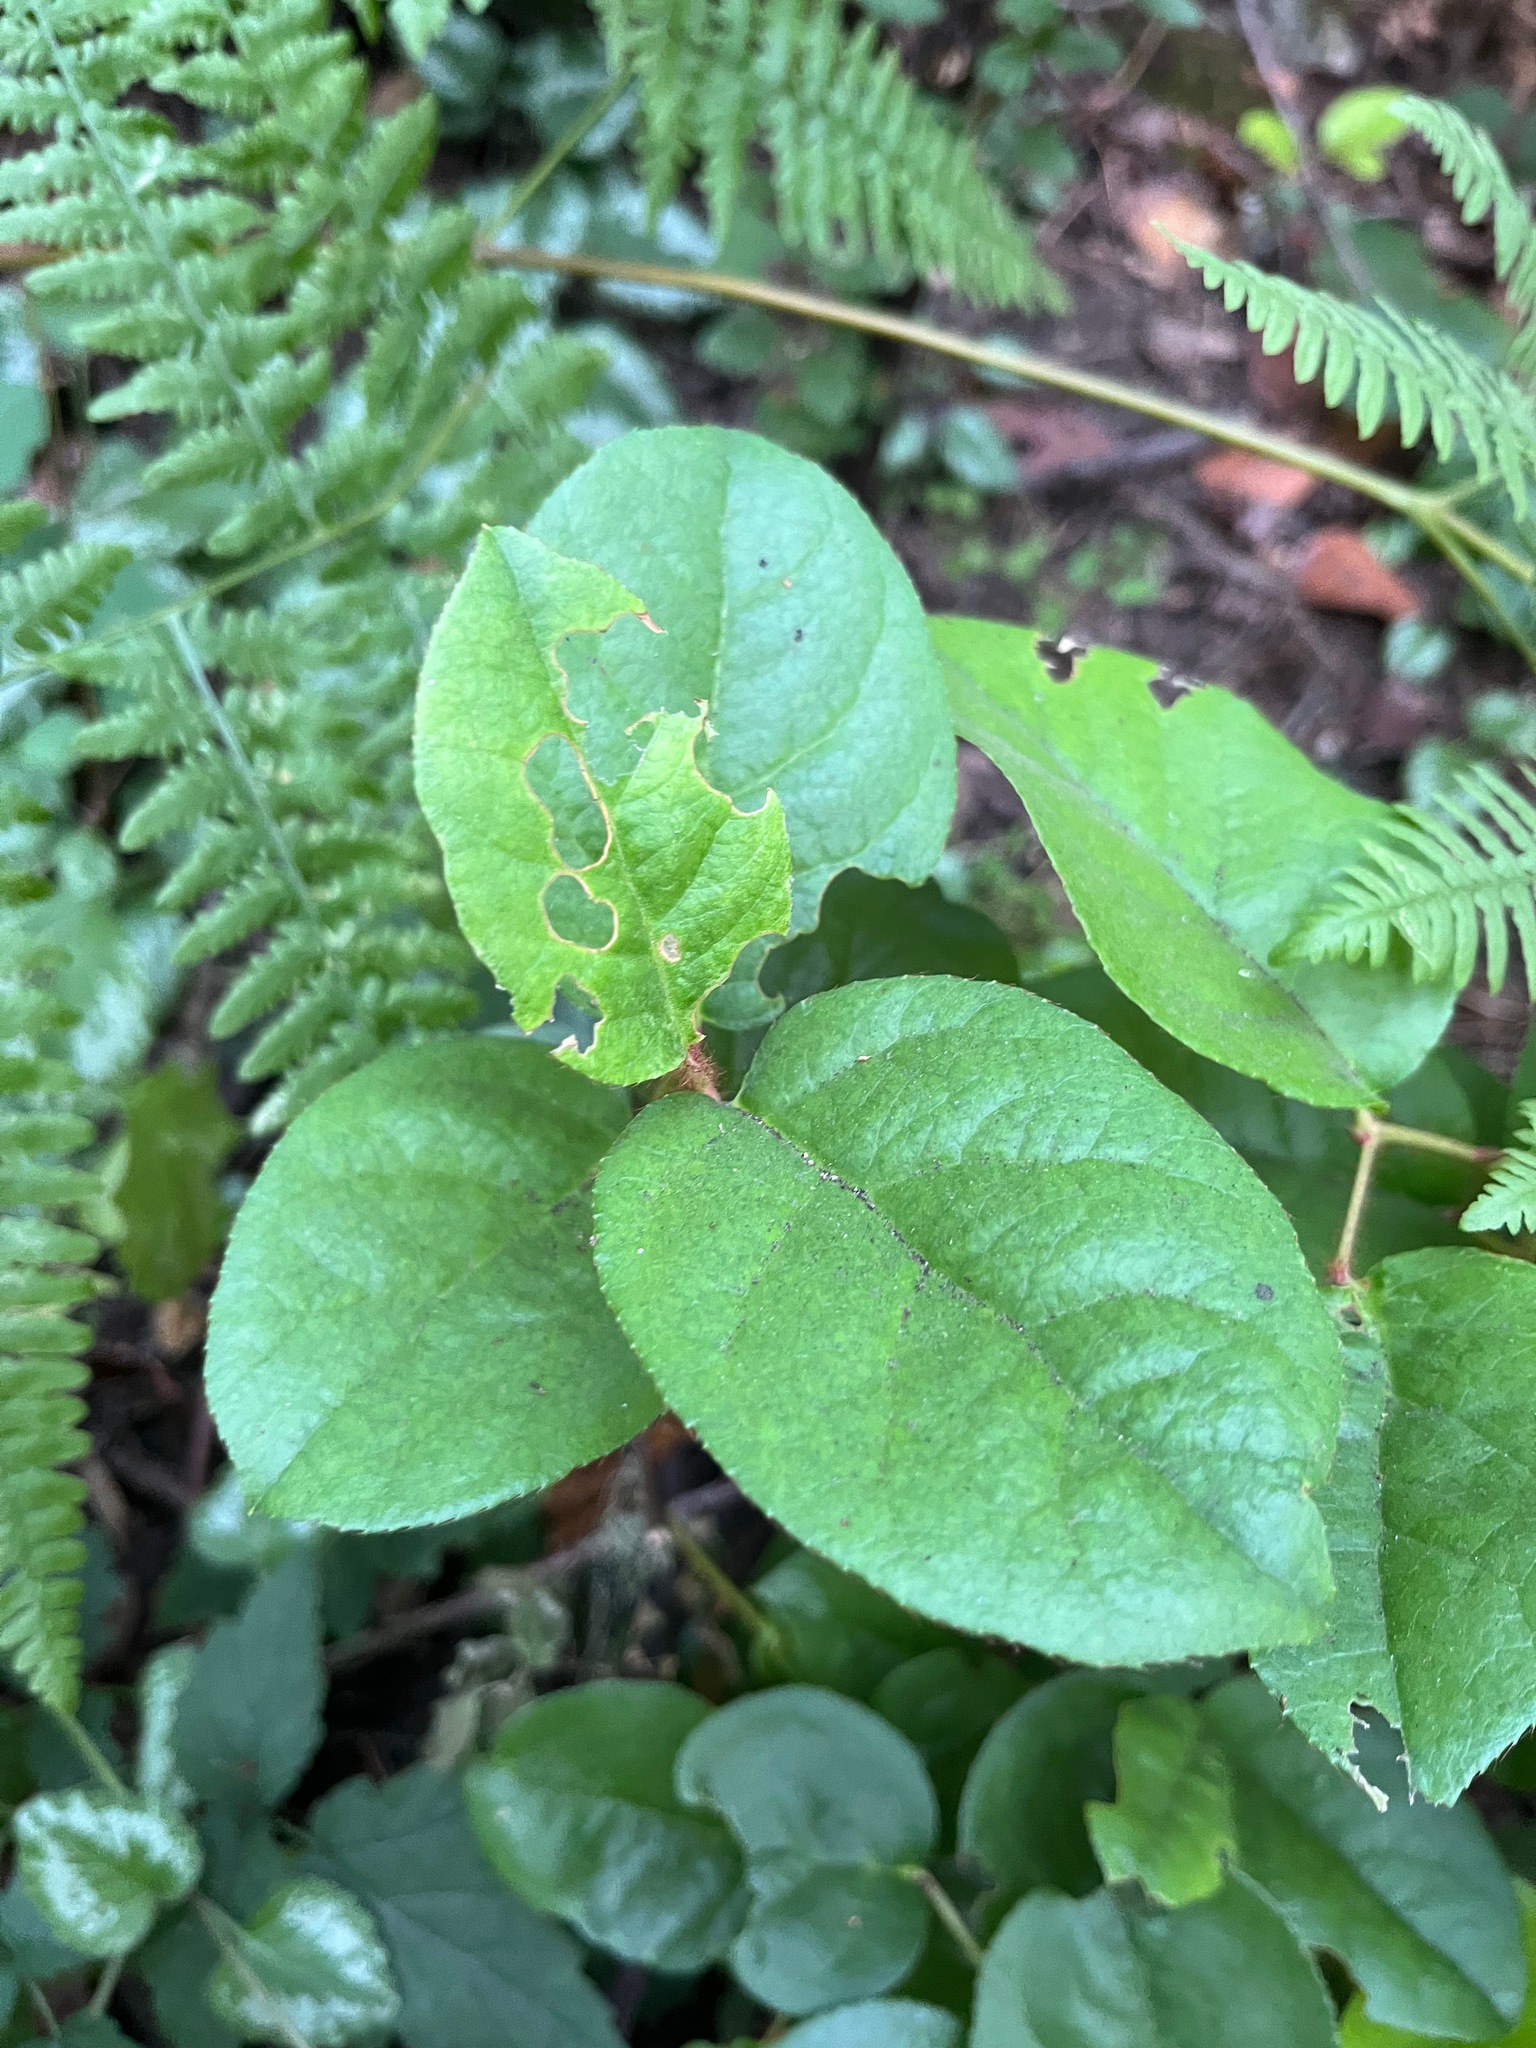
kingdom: Plantae
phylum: Tracheophyta
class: Magnoliopsida
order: Ericales
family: Ericaceae
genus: Gaultheria
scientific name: Gaultheria shallon
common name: Shallon
